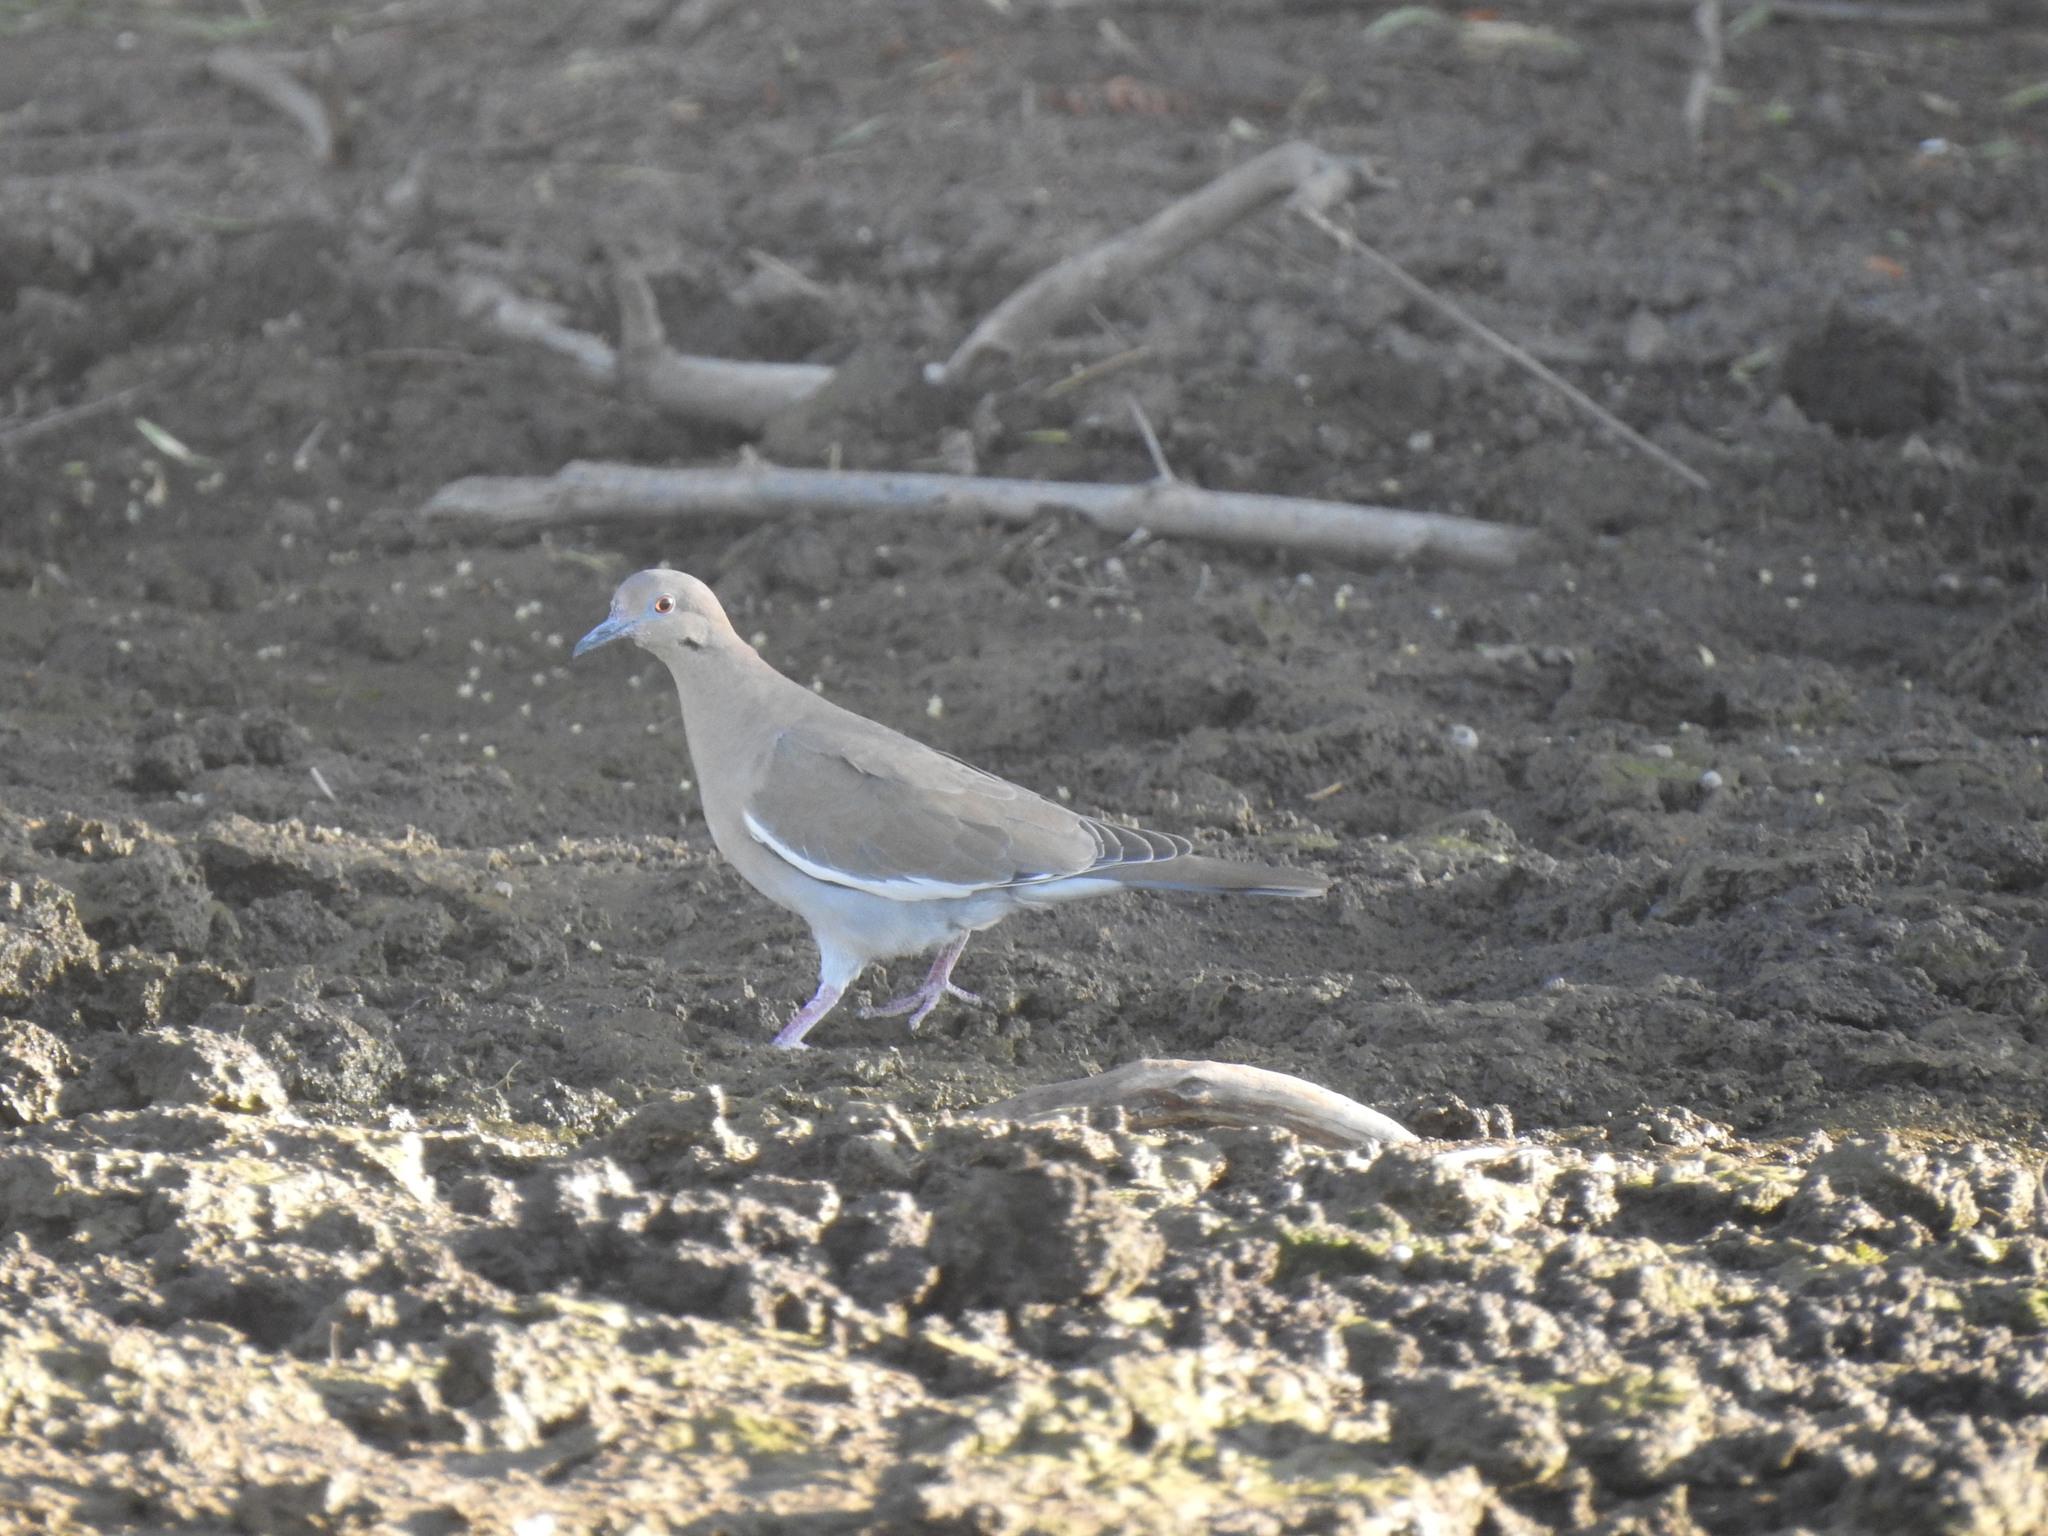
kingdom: Animalia
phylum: Chordata
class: Aves
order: Columbiformes
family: Columbidae
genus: Zenaida
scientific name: Zenaida asiatica
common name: White-winged dove
